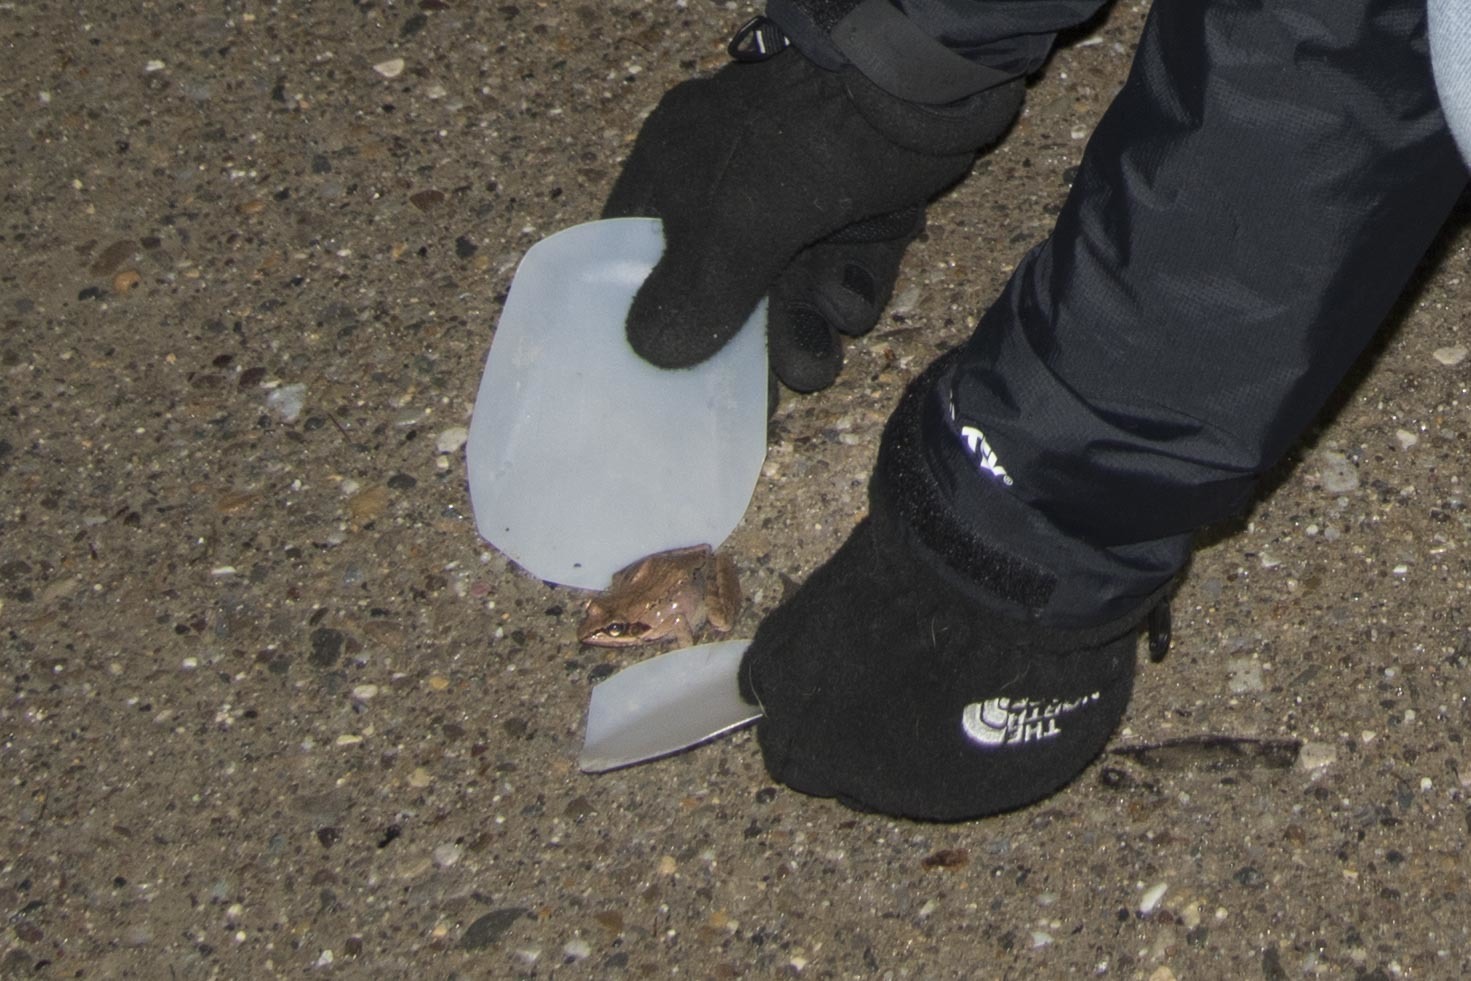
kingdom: Animalia
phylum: Chordata
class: Amphibia
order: Anura
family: Ranidae
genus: Lithobates
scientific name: Lithobates sylvaticus
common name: Wood frog
